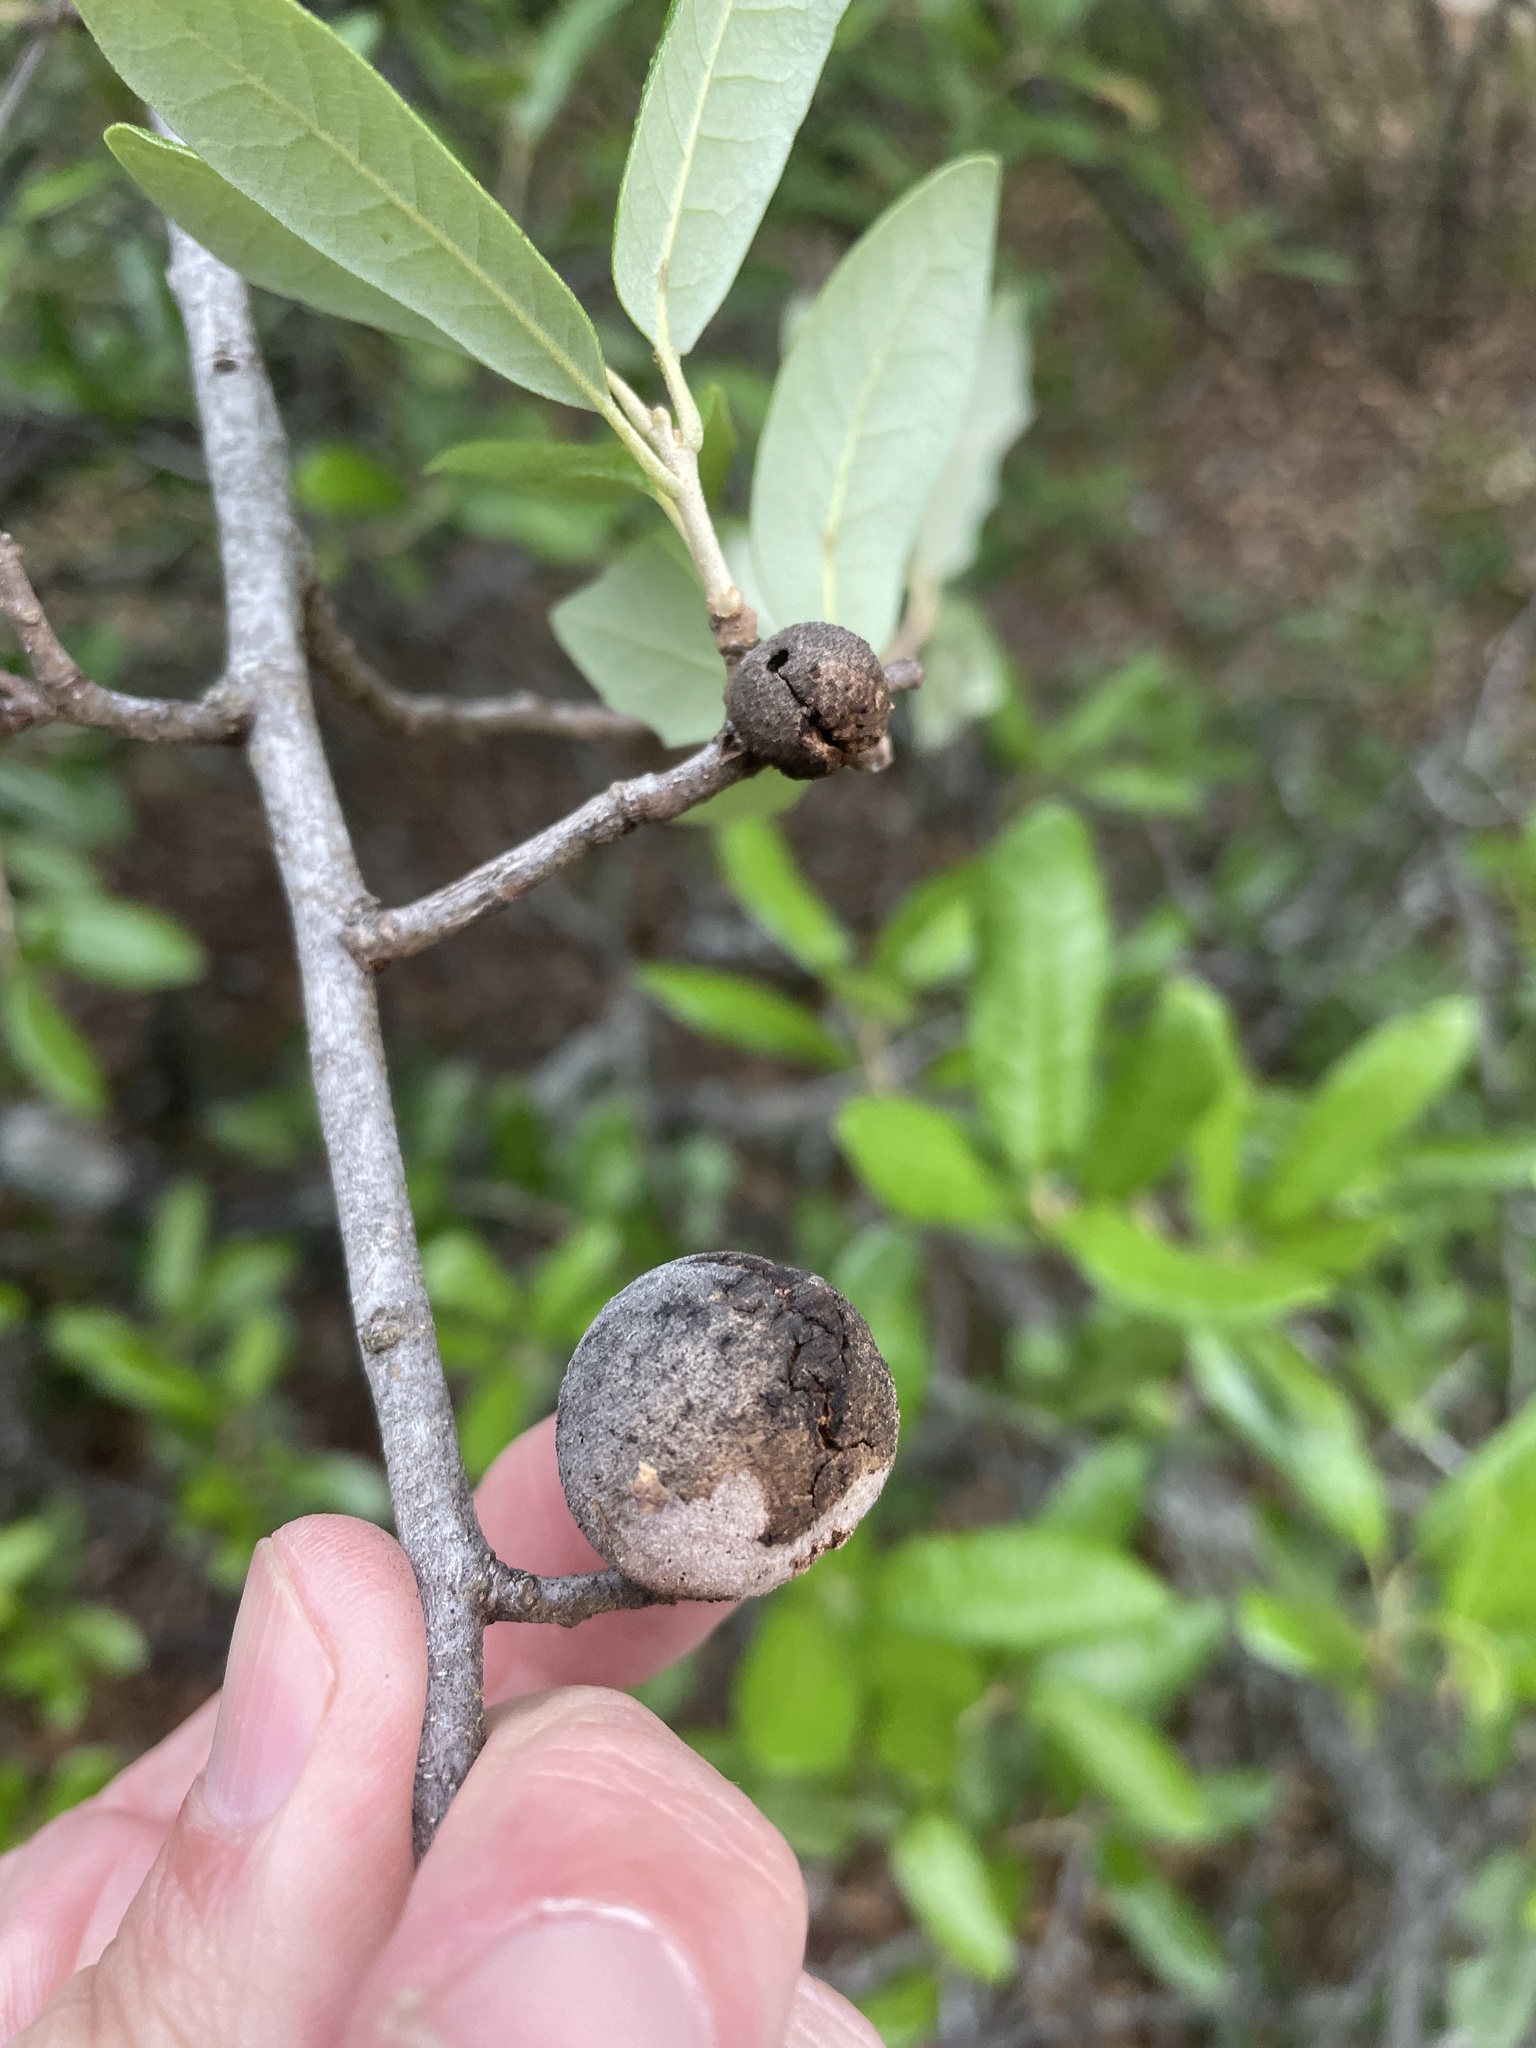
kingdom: Animalia
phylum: Arthropoda
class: Insecta
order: Hymenoptera
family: Cynipidae
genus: Disholcaspis
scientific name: Disholcaspis
